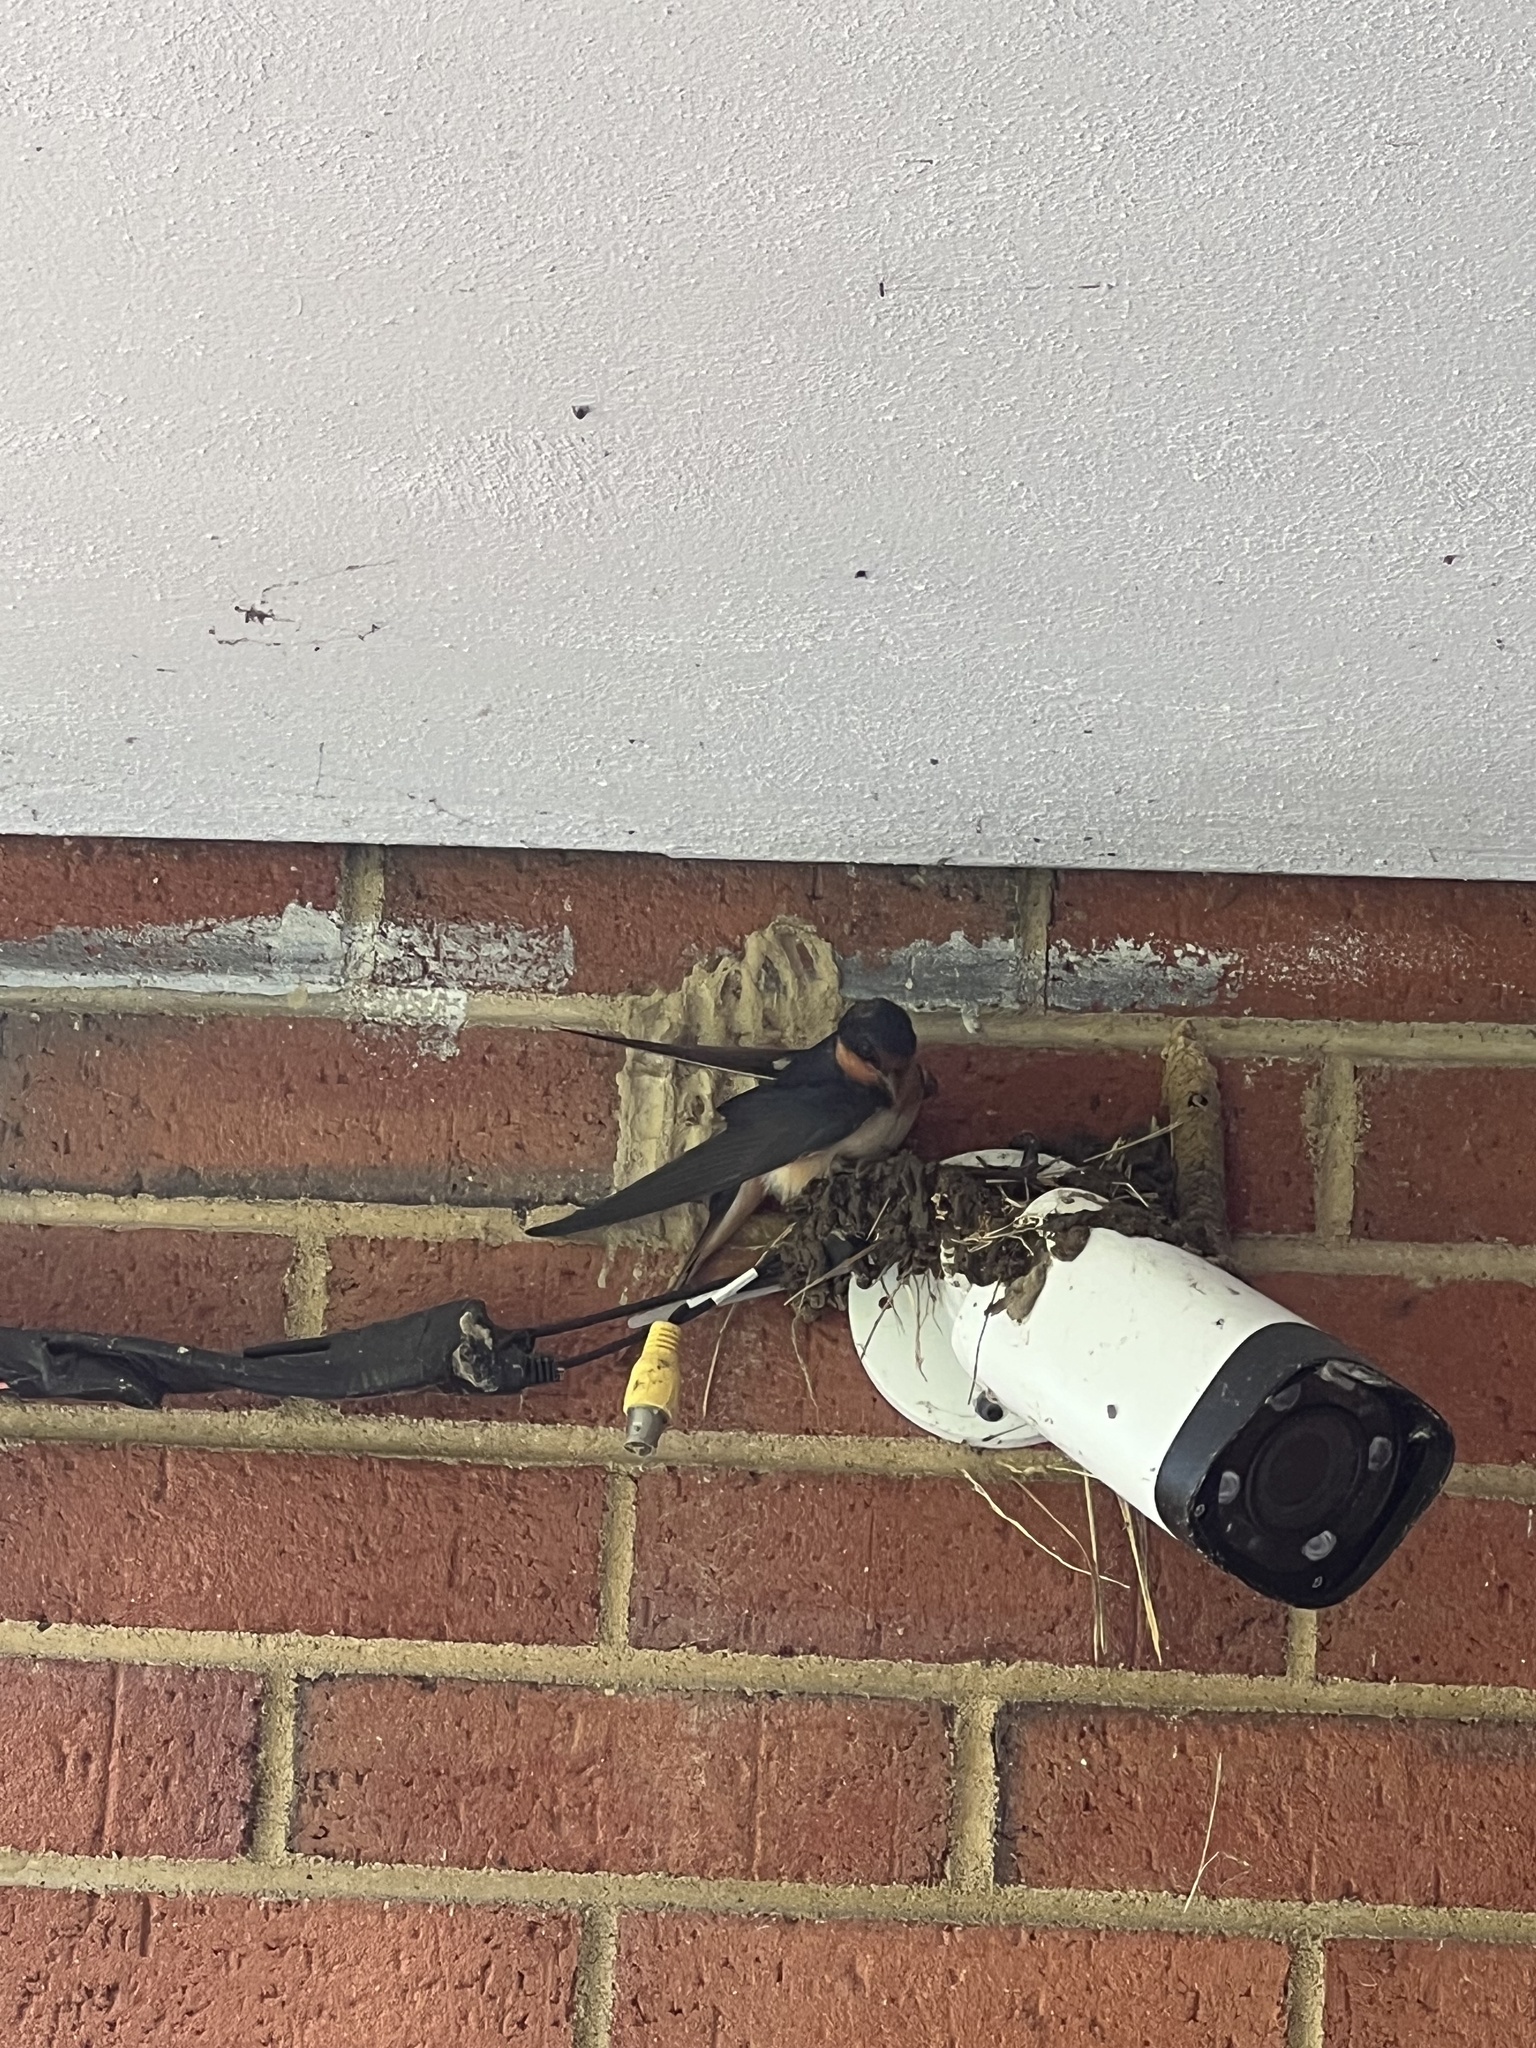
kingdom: Animalia
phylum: Chordata
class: Aves
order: Passeriformes
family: Hirundinidae
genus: Hirundo
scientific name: Hirundo rustica
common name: Barn swallow
